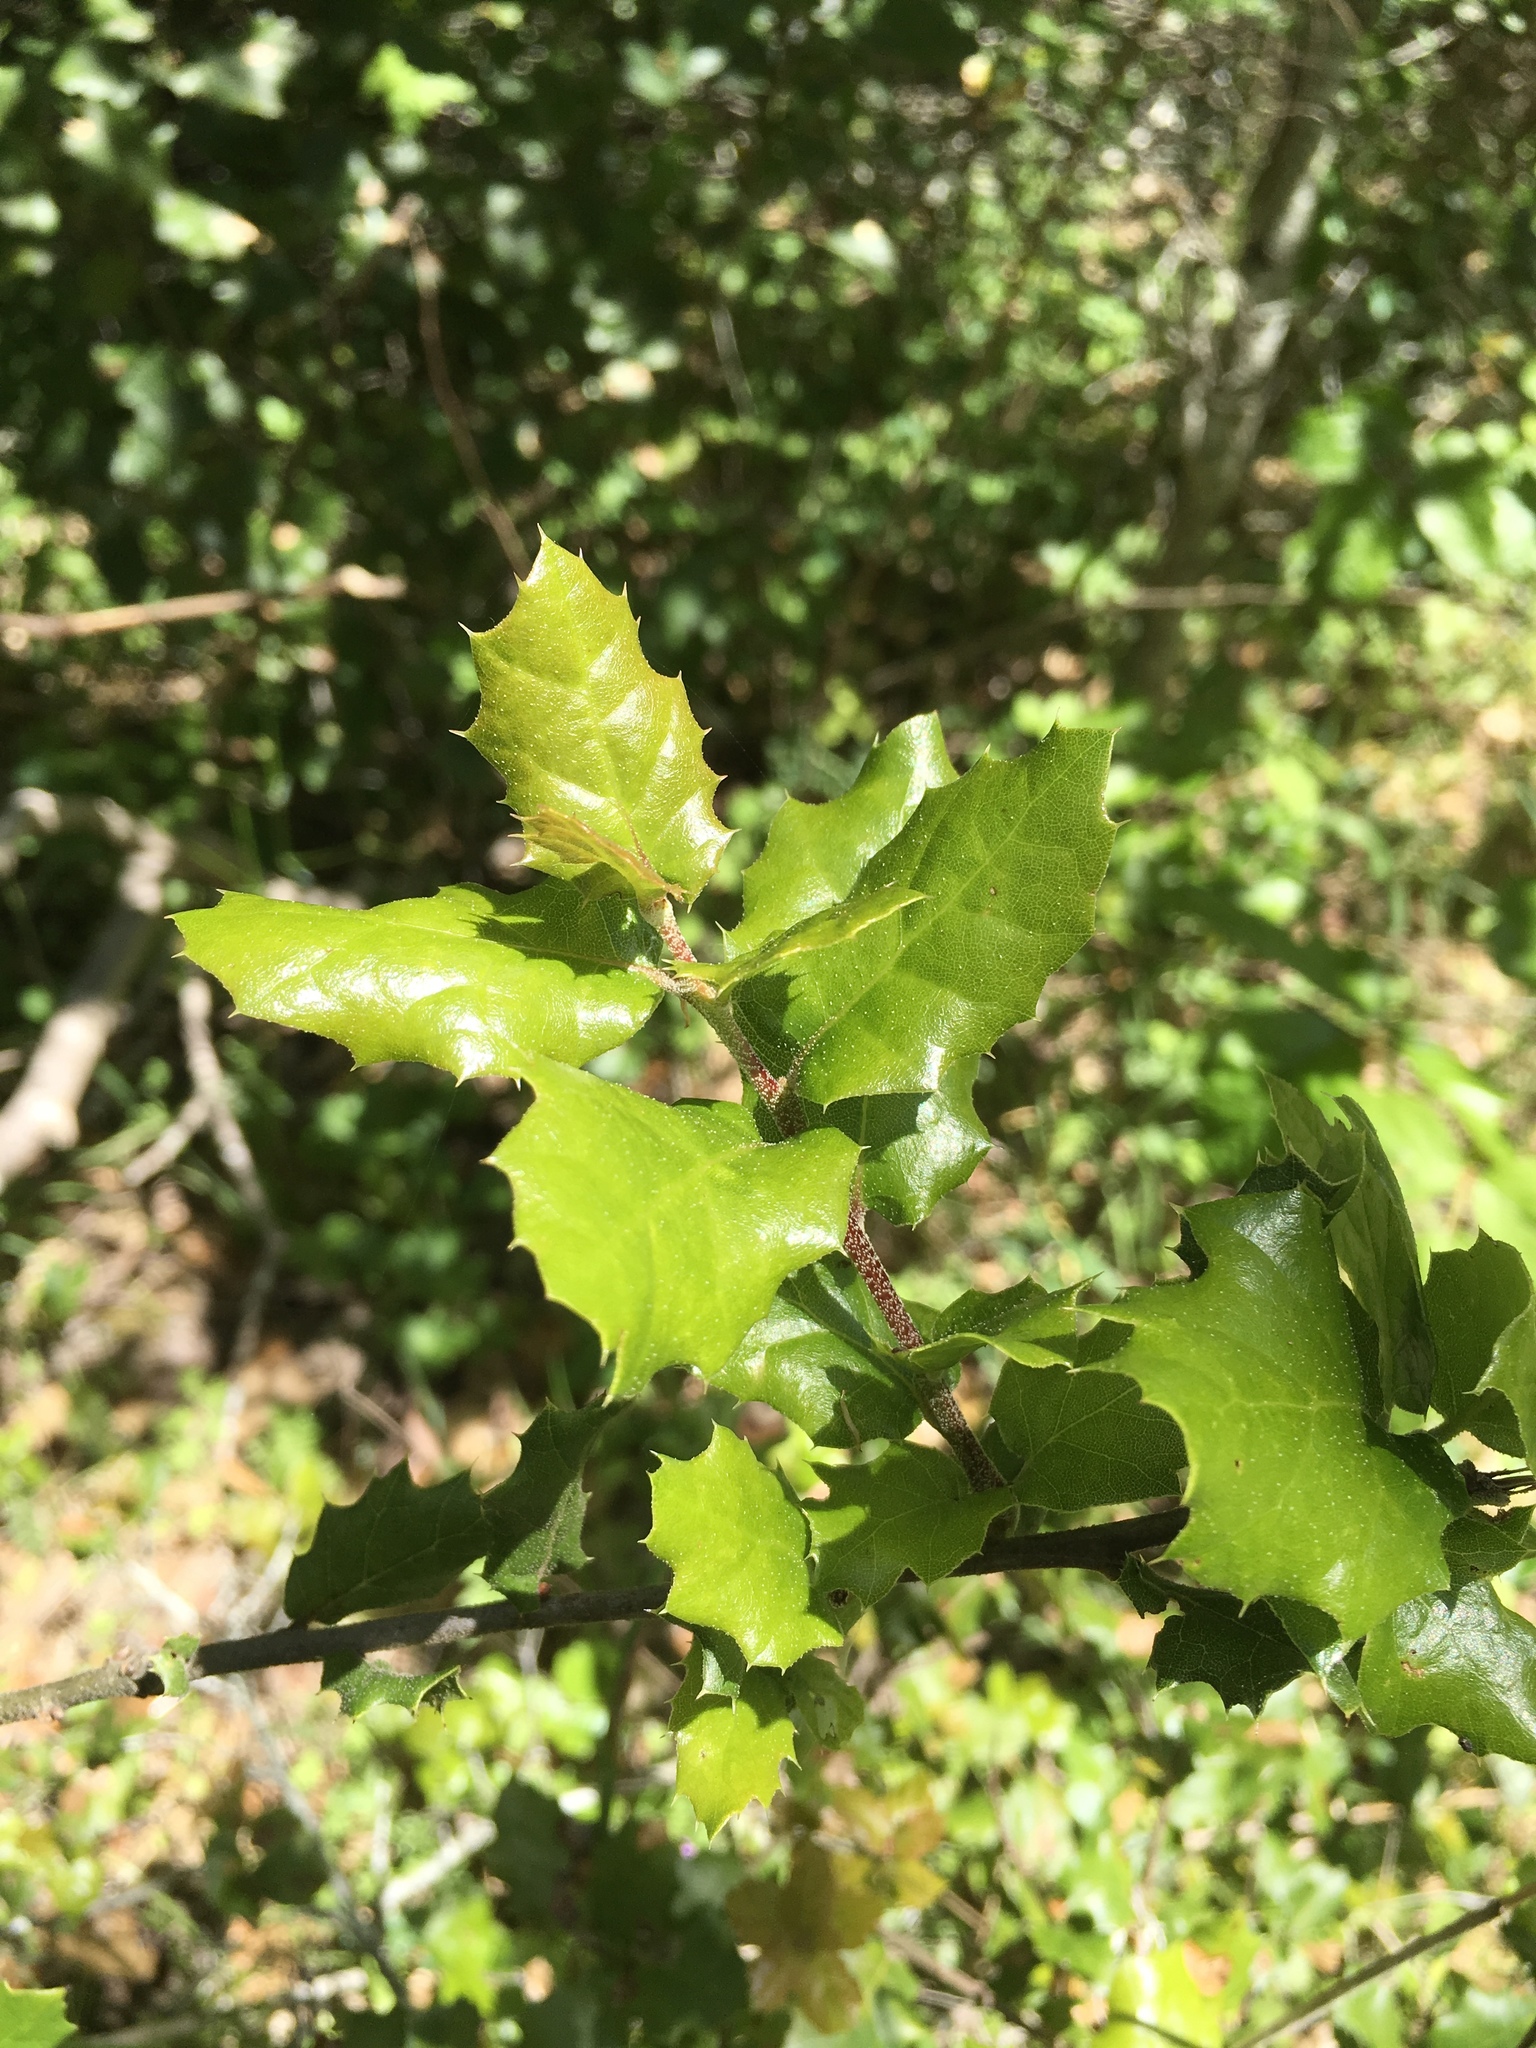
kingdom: Plantae
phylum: Tracheophyta
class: Magnoliopsida
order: Fagales
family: Fagaceae
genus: Quercus
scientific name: Quercus agrifolia
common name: California live oak
